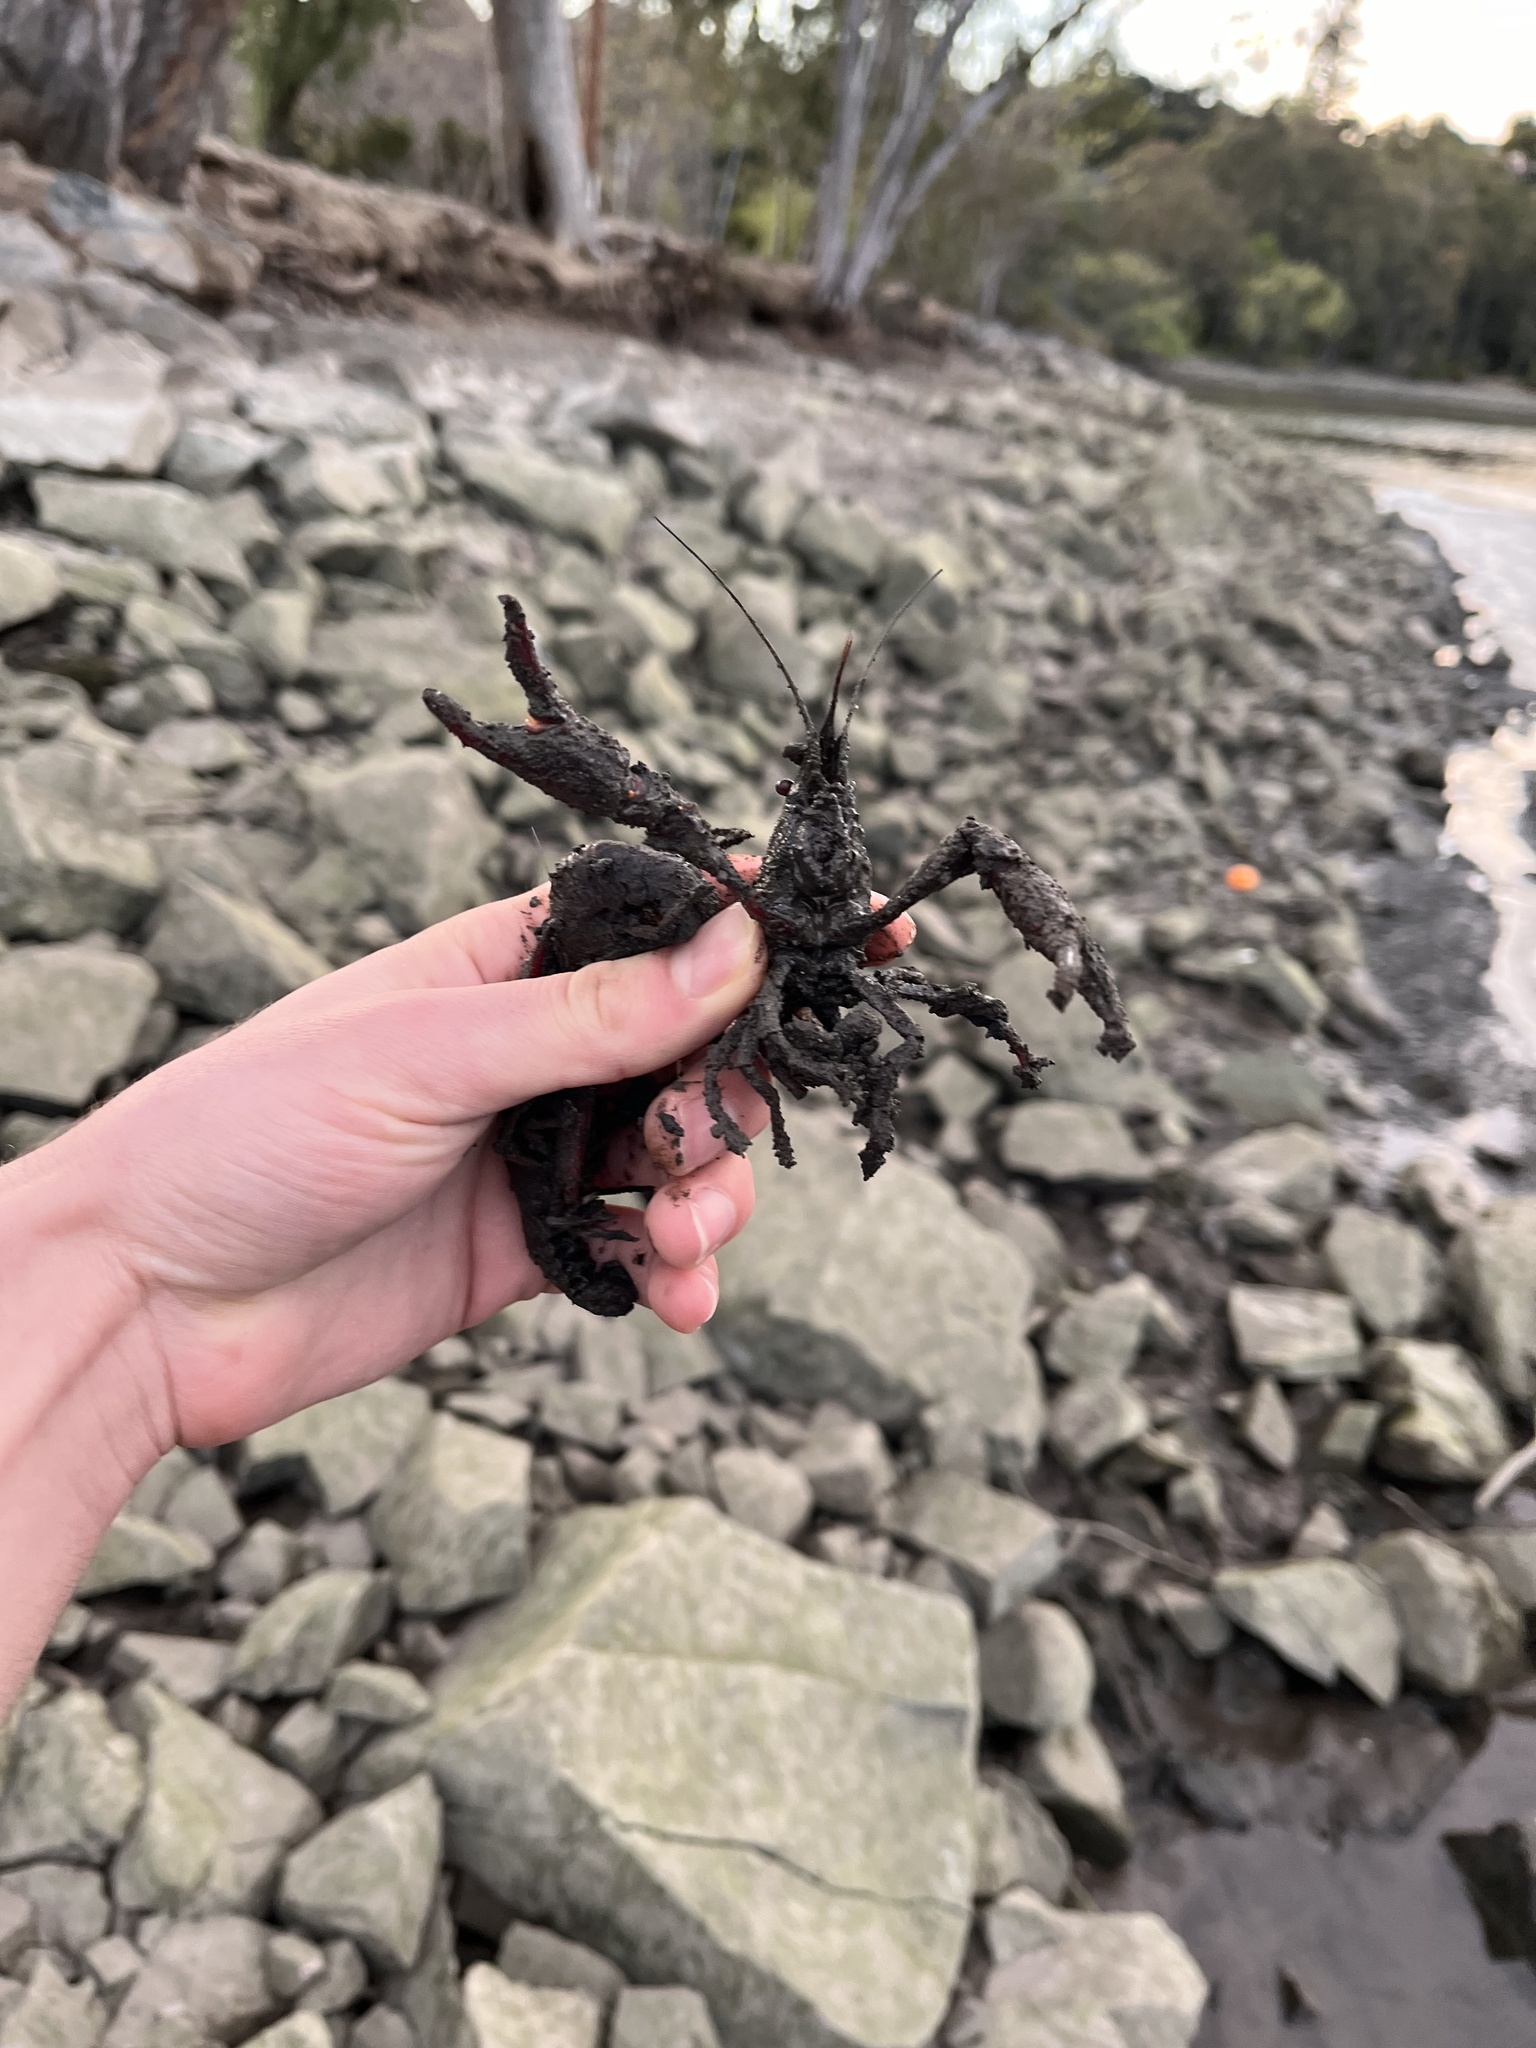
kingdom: Animalia
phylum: Arthropoda
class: Malacostraca
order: Decapoda
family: Cambaridae
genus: Procambarus
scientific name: Procambarus clarkii
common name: Red swamp crayfish
